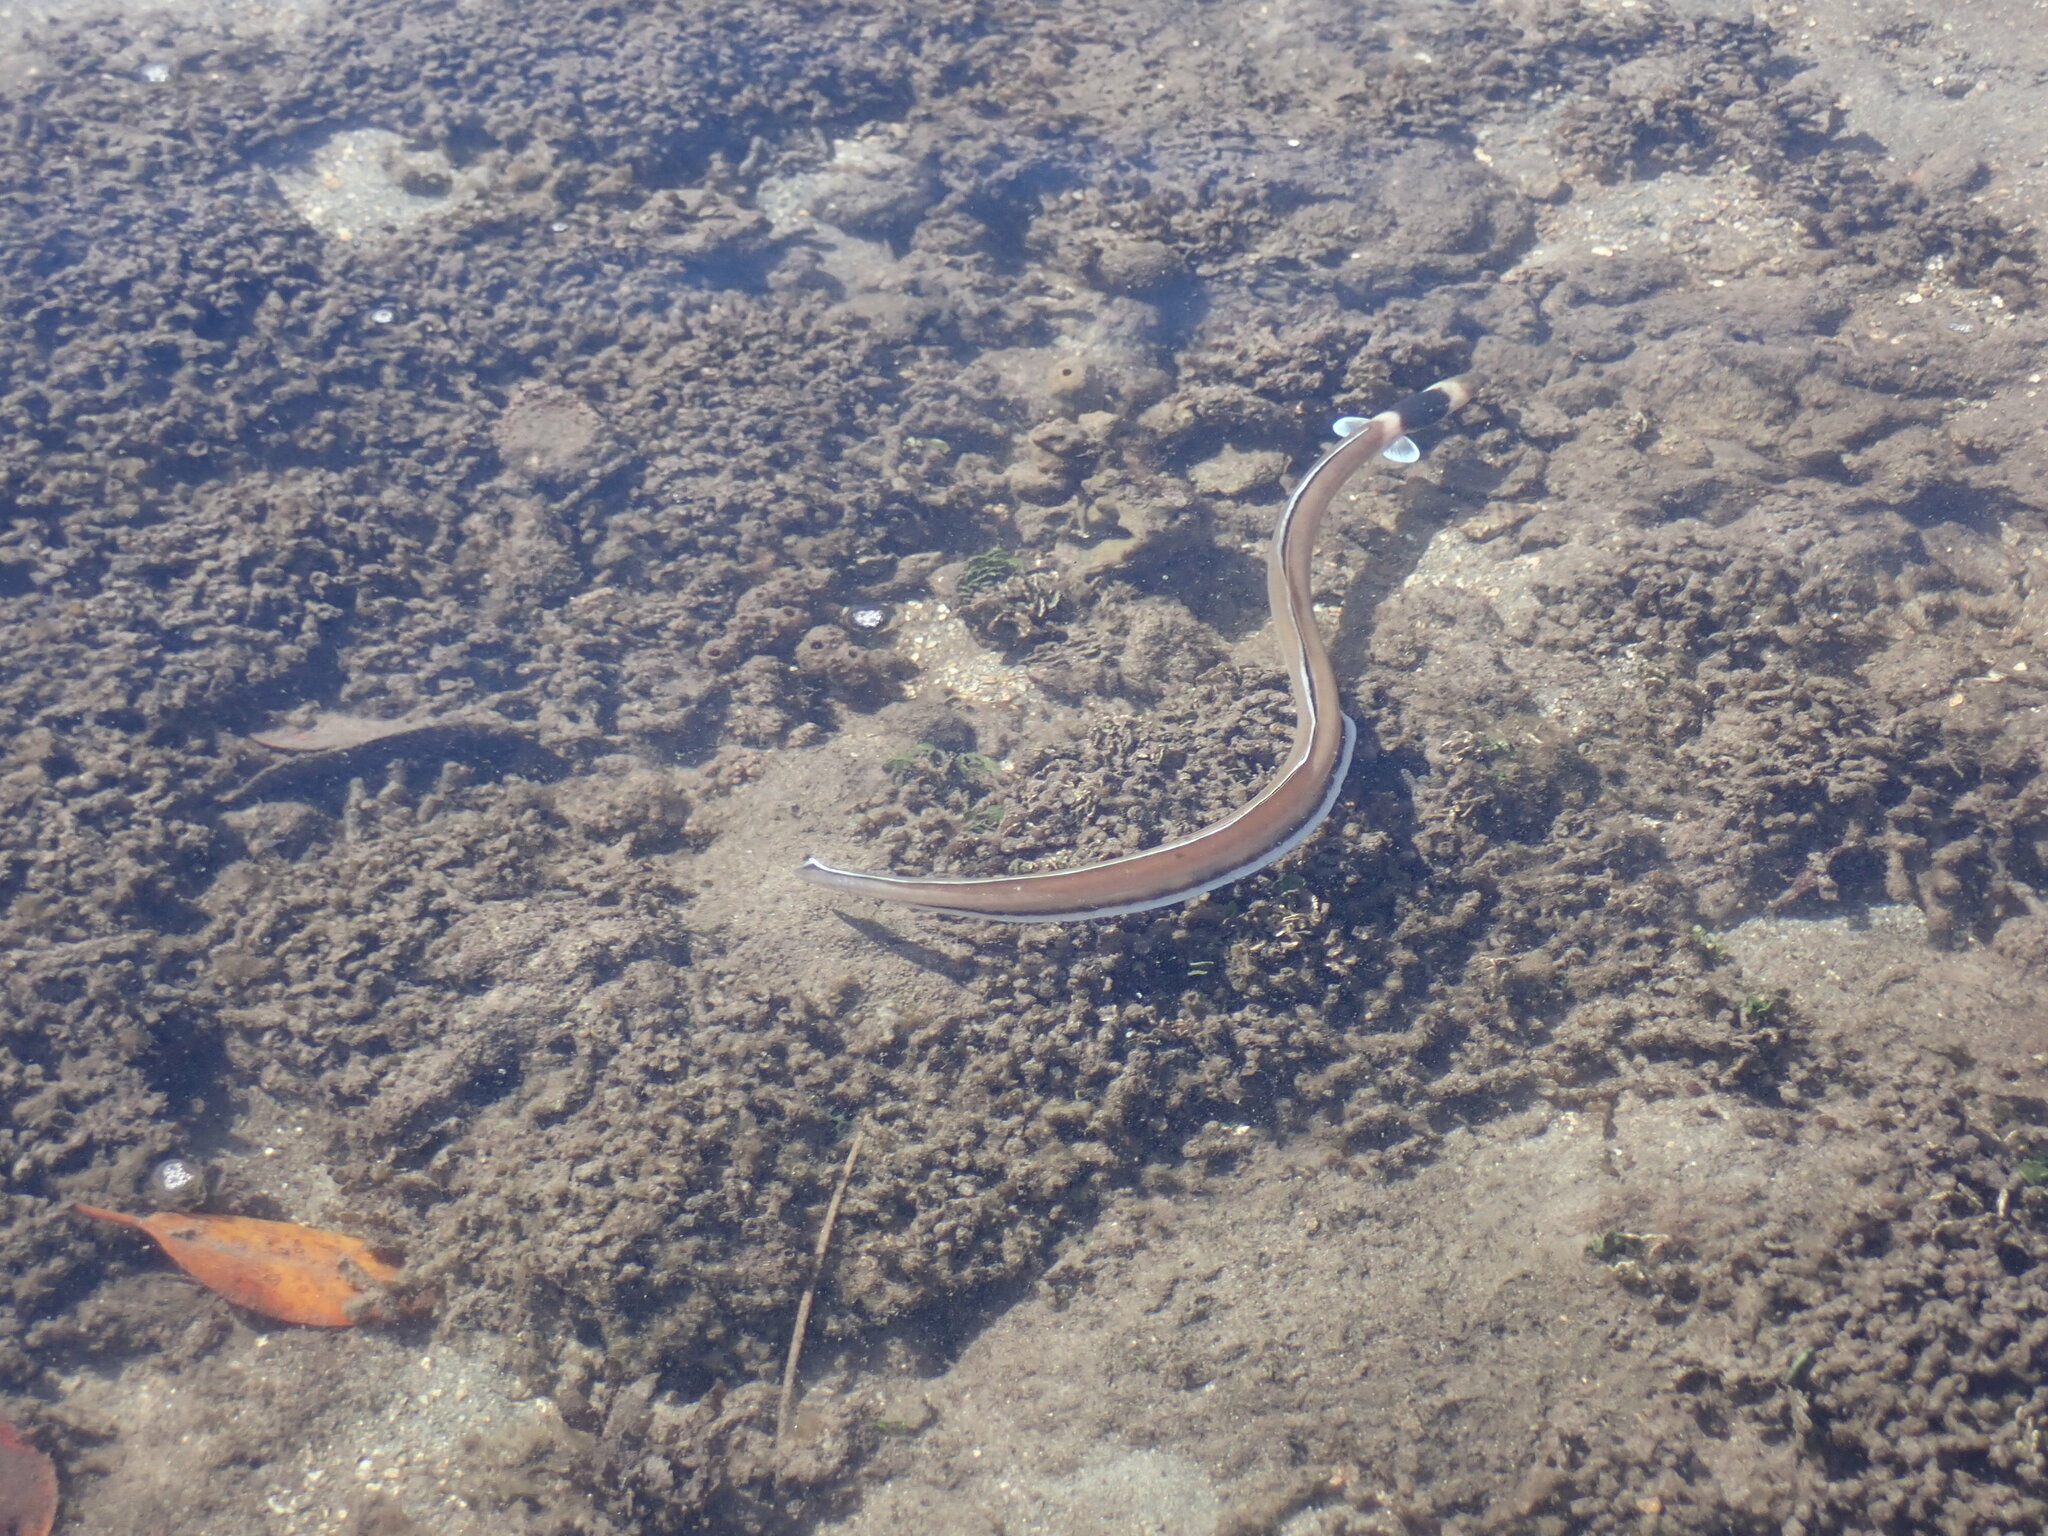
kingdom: Animalia
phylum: Chordata
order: Anguilliformes
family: Ophichthidae
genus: Ophichthus
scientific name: Ophichthus cephalozona
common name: Dark-shouldered snake eel
